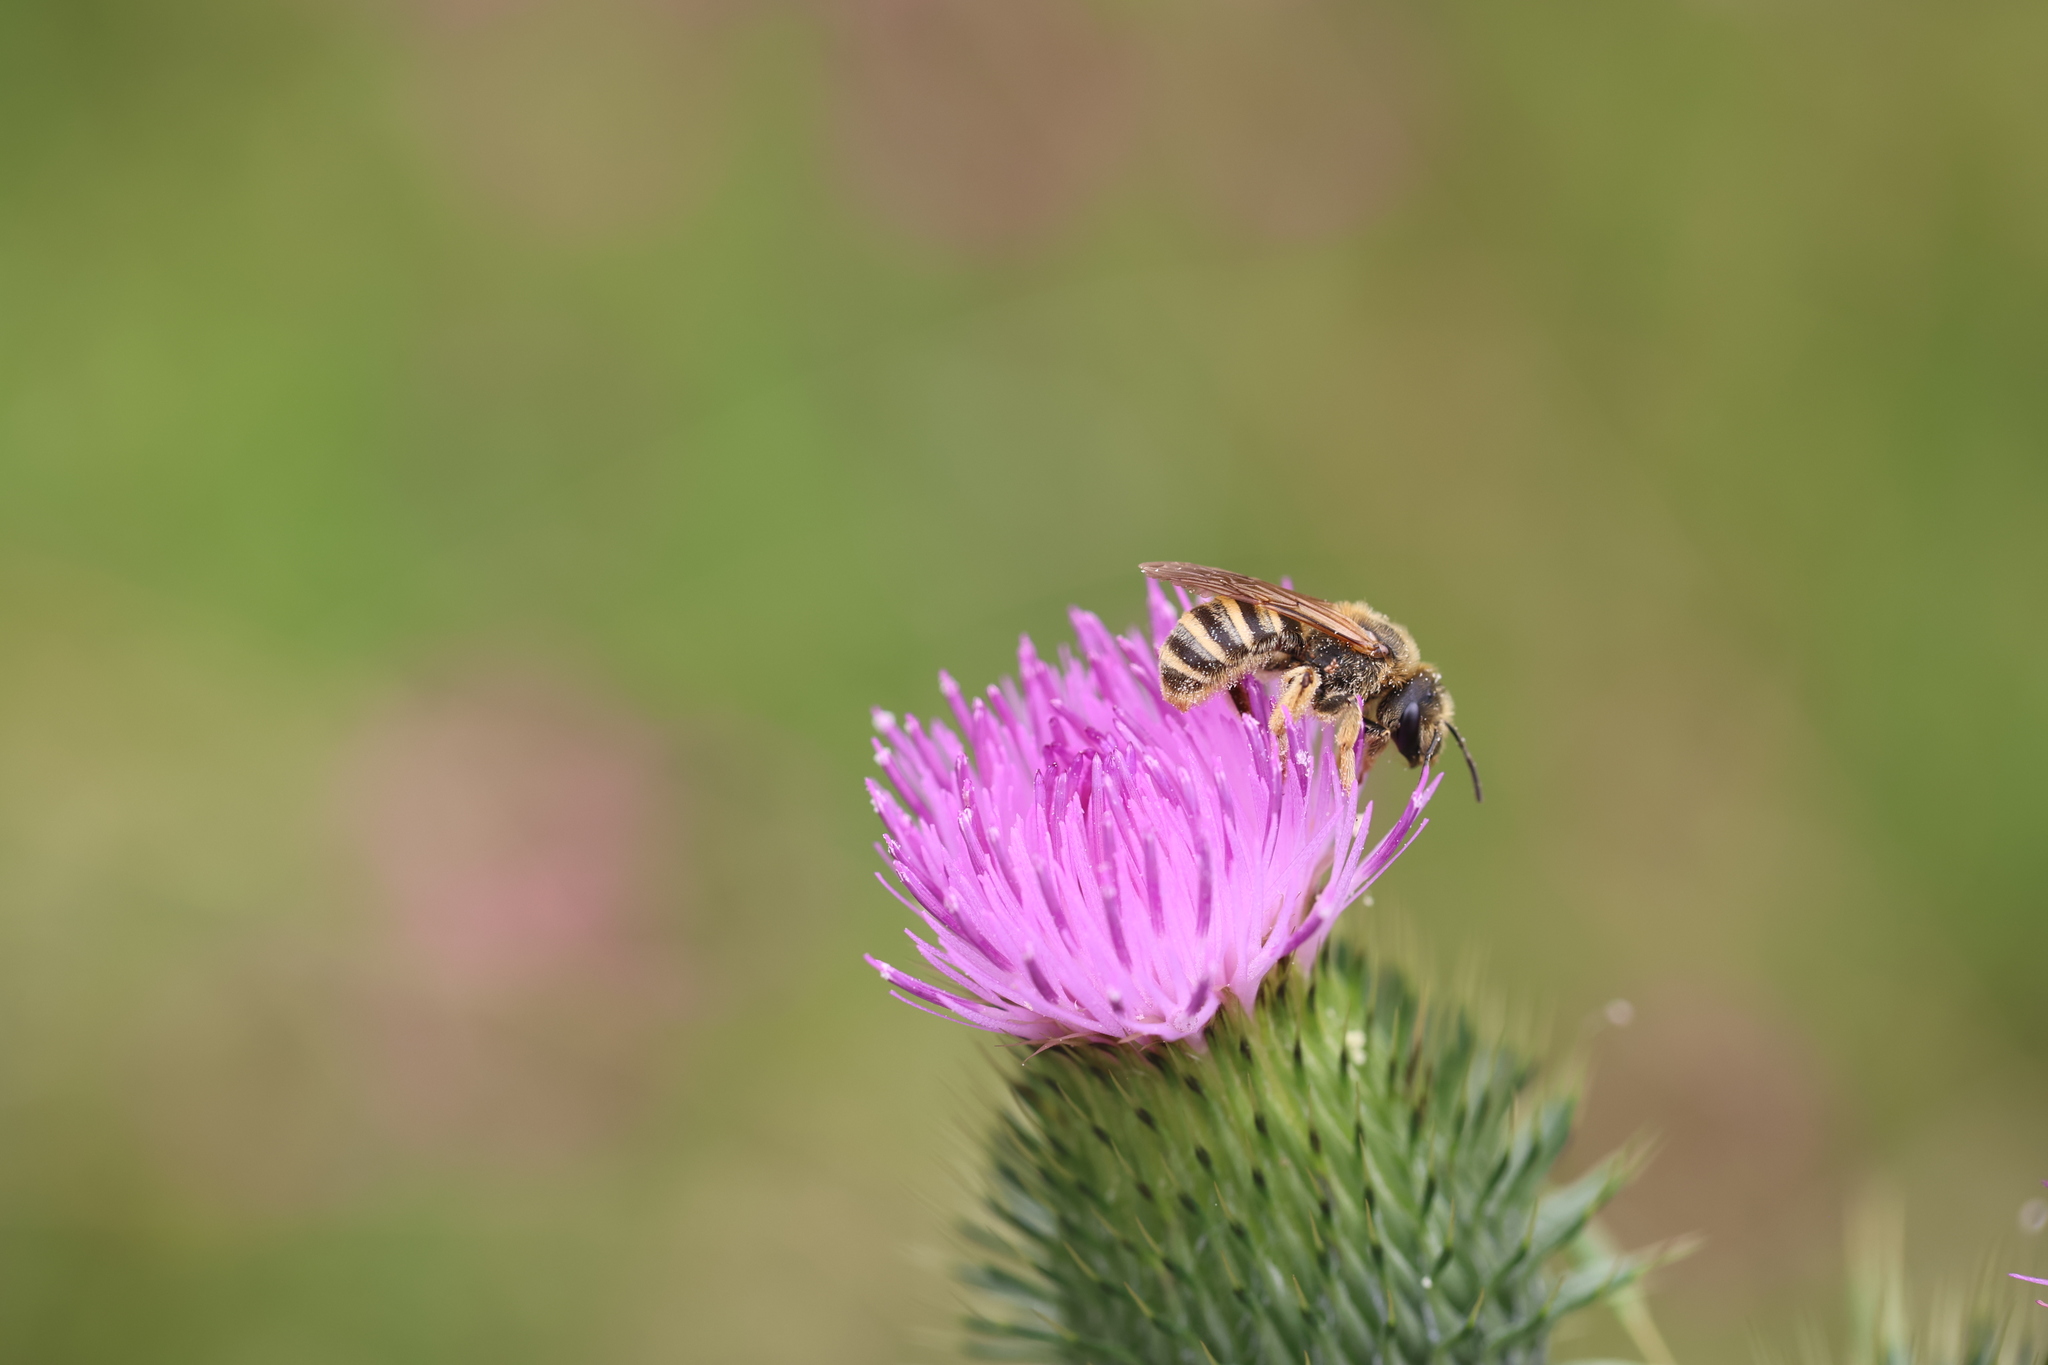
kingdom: Animalia
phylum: Arthropoda
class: Insecta
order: Hymenoptera
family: Halictidae
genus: Halictus
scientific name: Halictus scabiosae
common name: Great banded furrow bee
